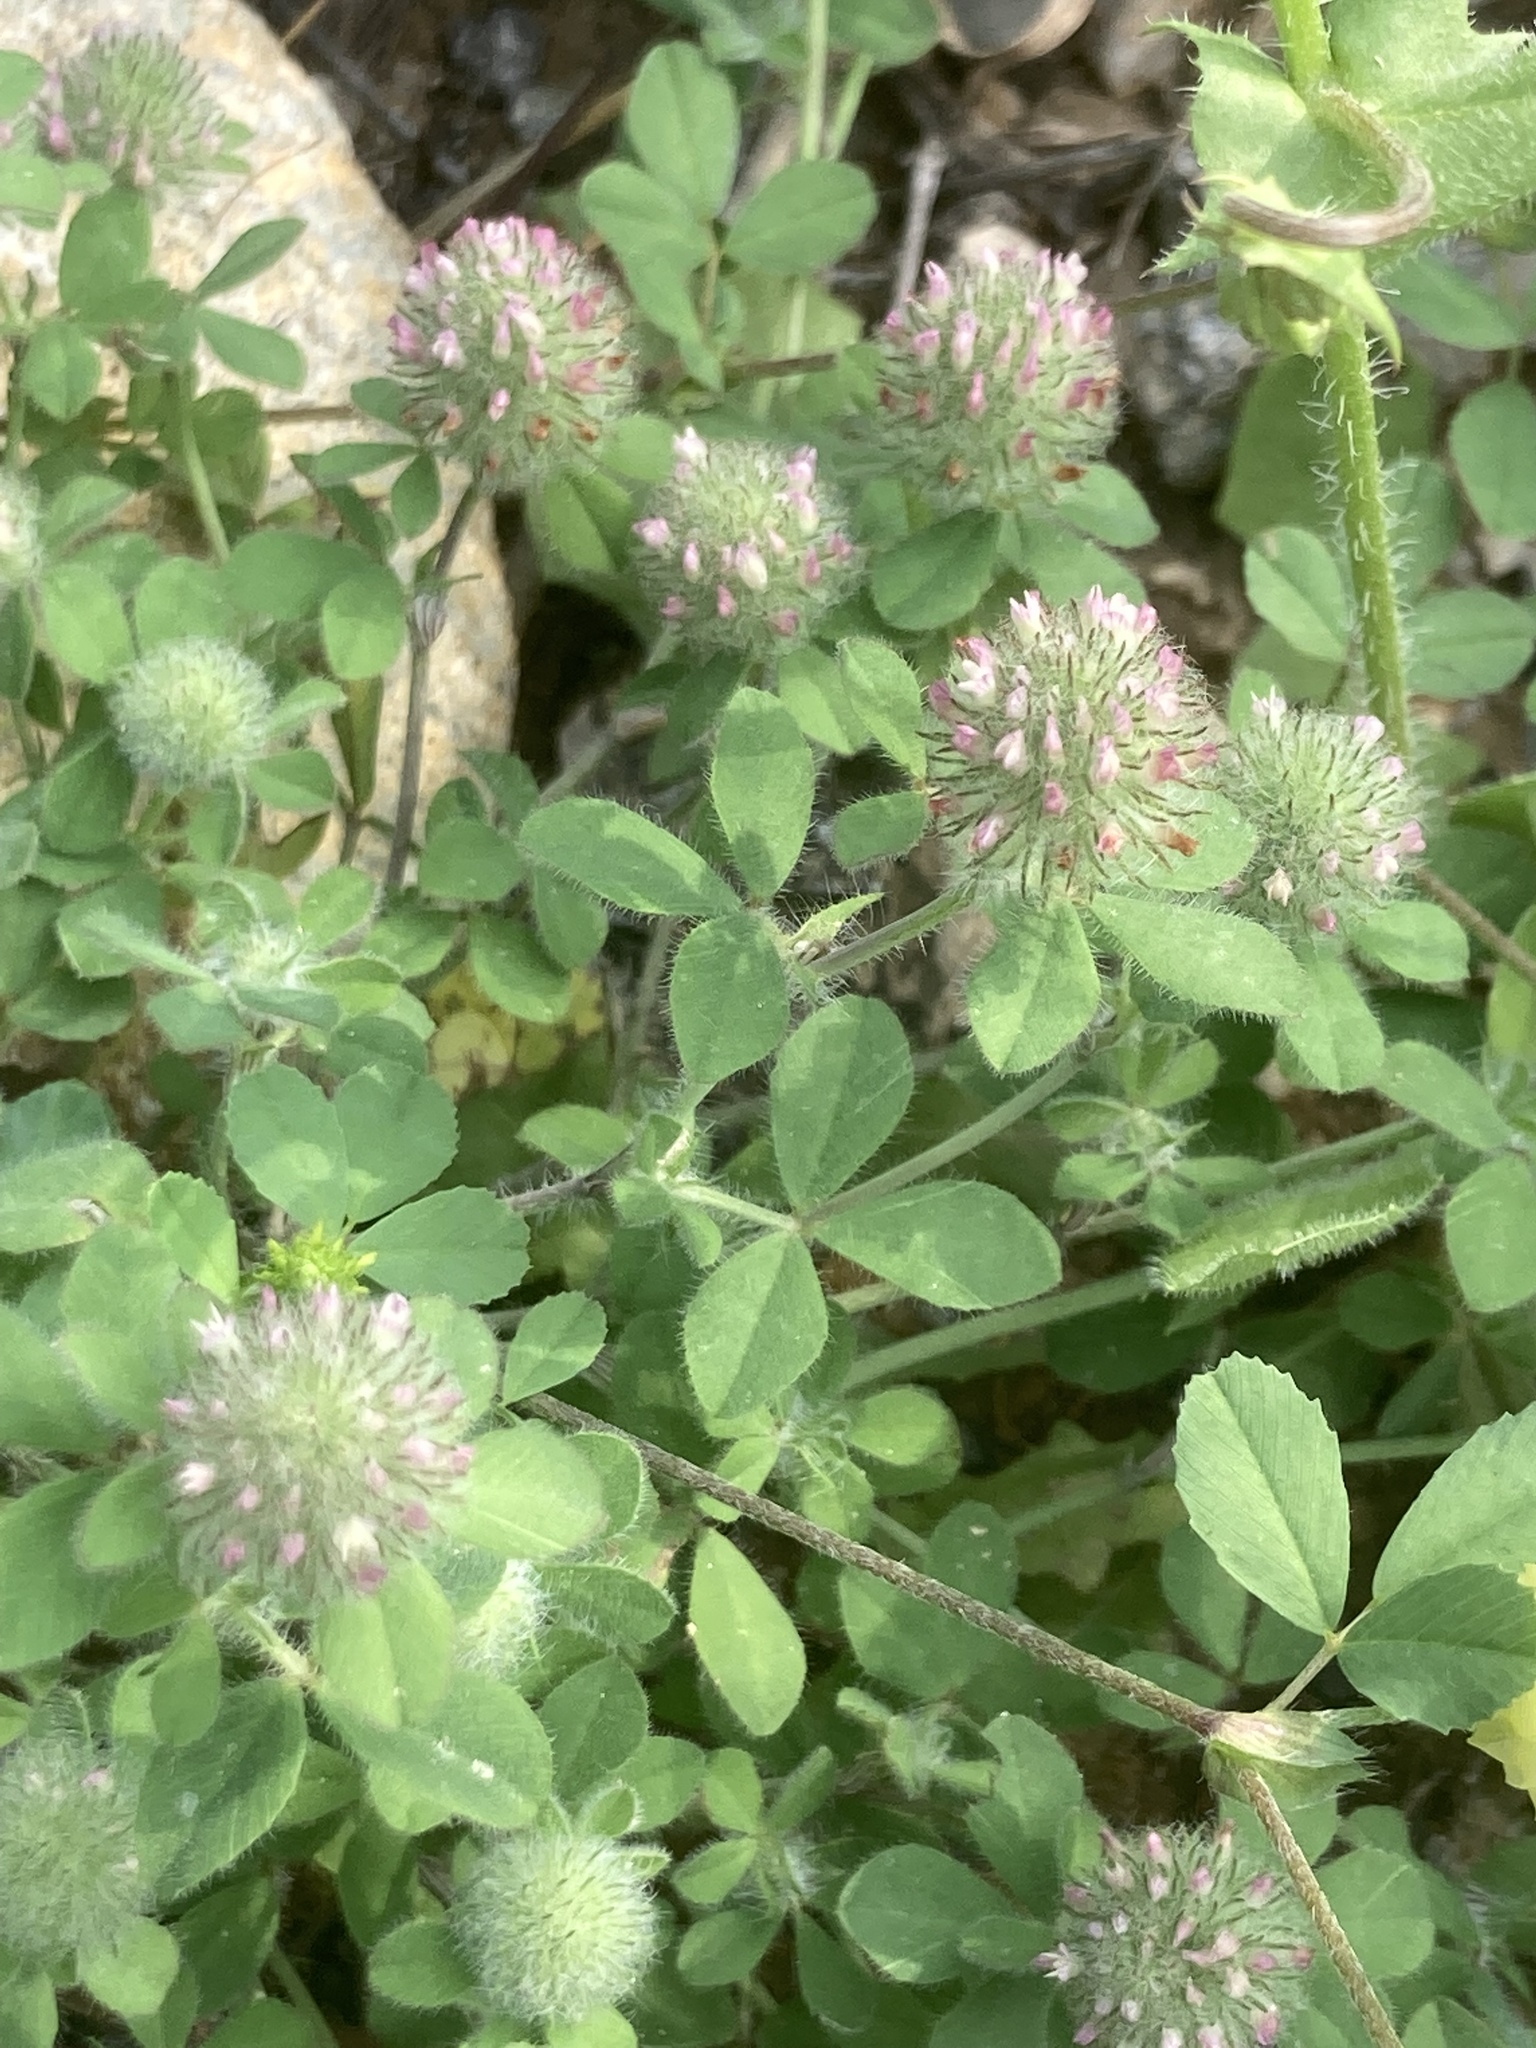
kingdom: Plantae
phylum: Tracheophyta
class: Magnoliopsida
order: Fabales
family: Fabaceae
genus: Trifolium
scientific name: Trifolium lappaceum
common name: Bur clover
